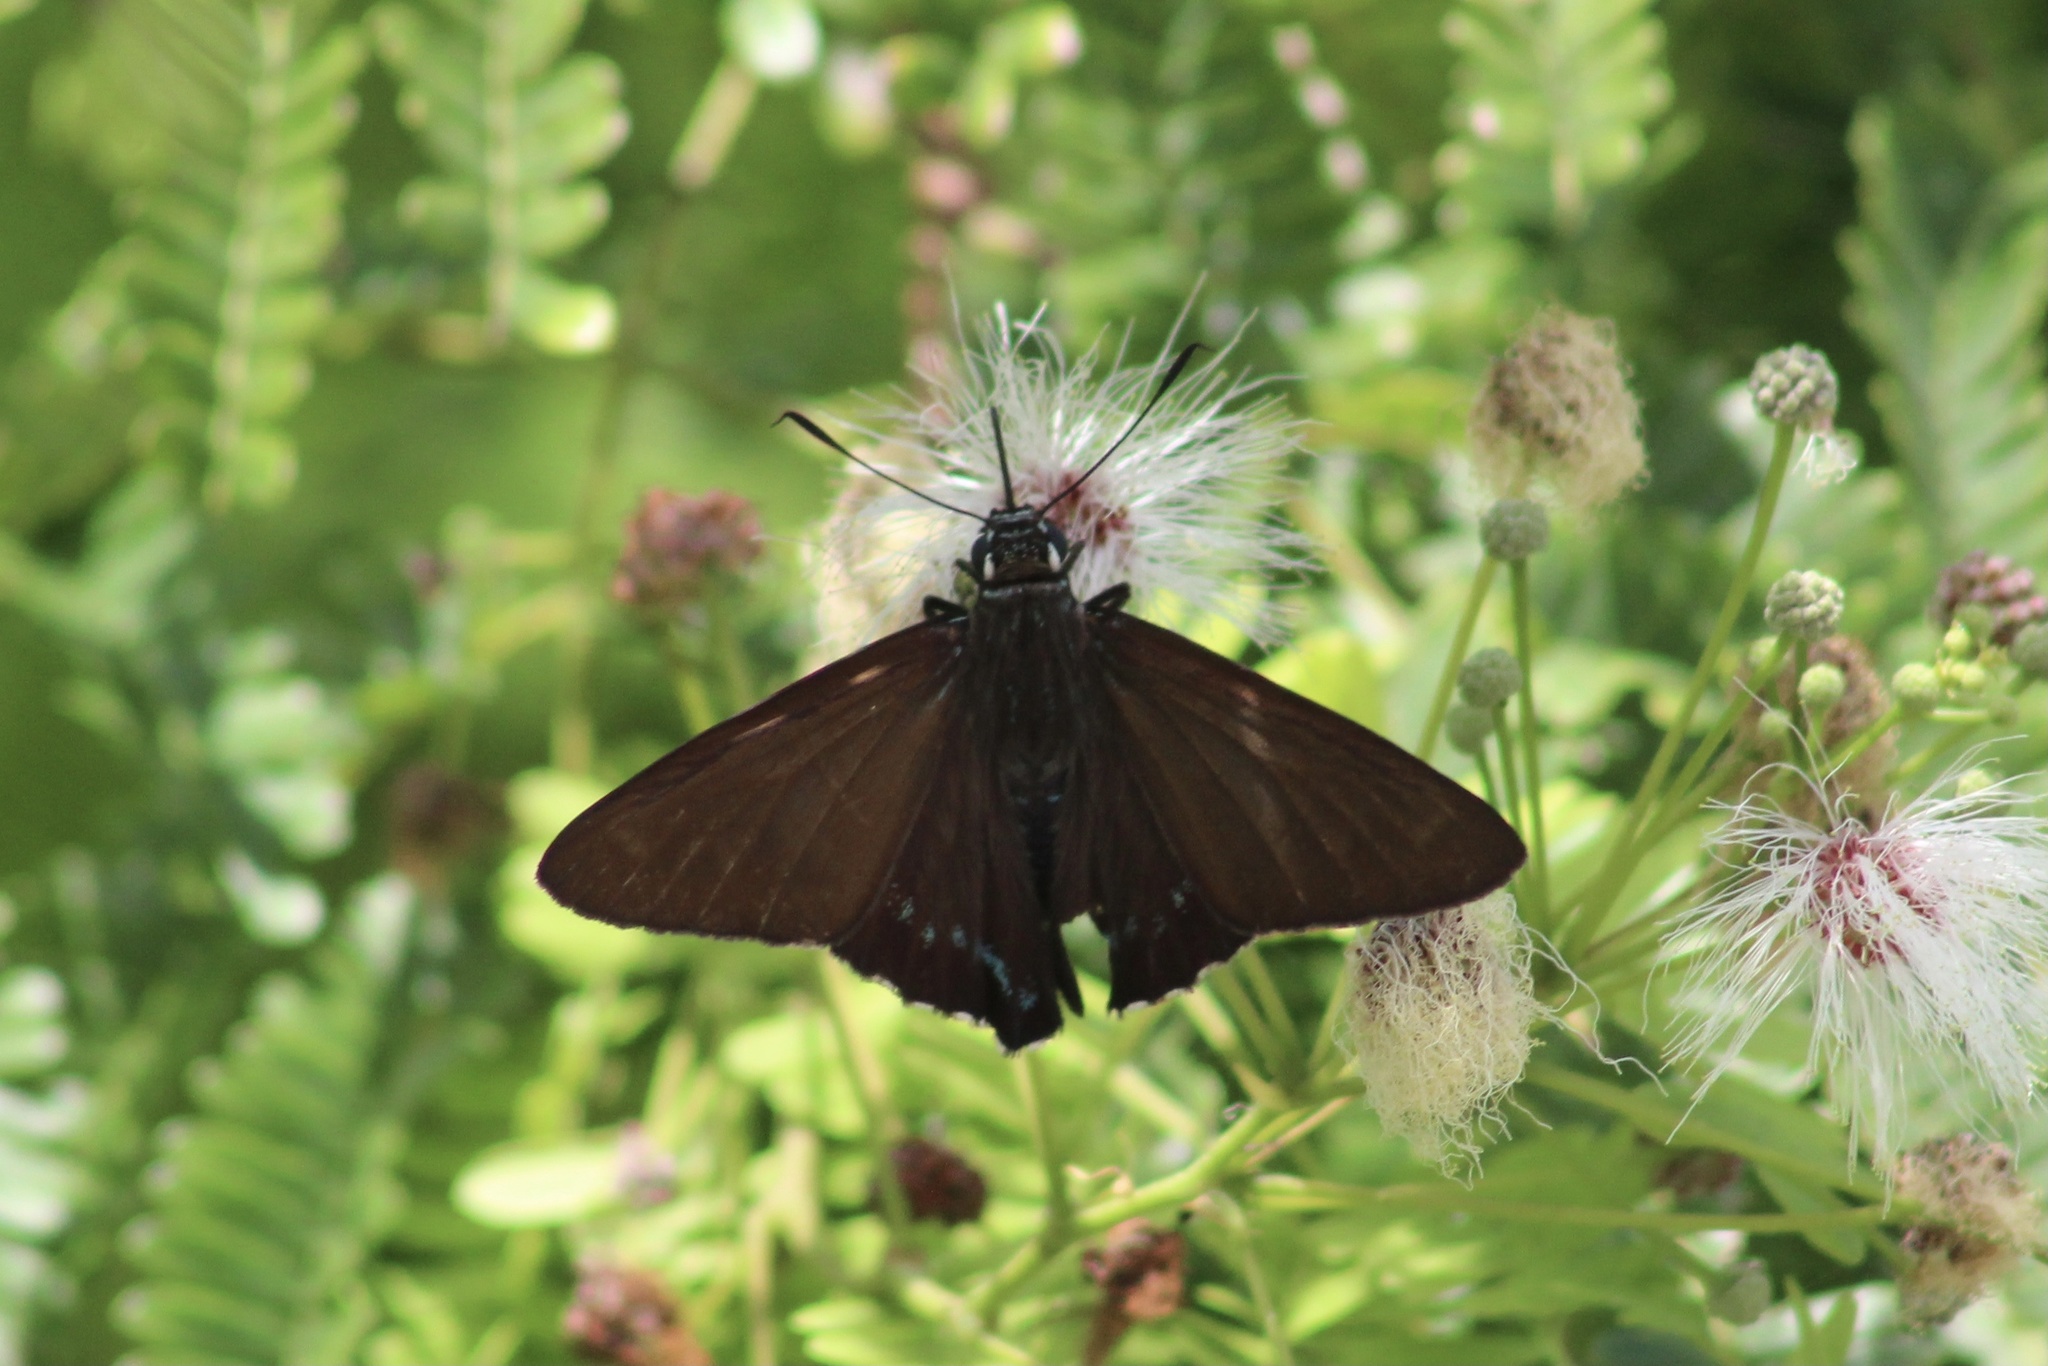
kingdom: Animalia
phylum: Arthropoda
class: Insecta
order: Lepidoptera
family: Hesperiidae
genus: Phocides
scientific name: Phocides pigmalion
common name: Mangrove skipper
